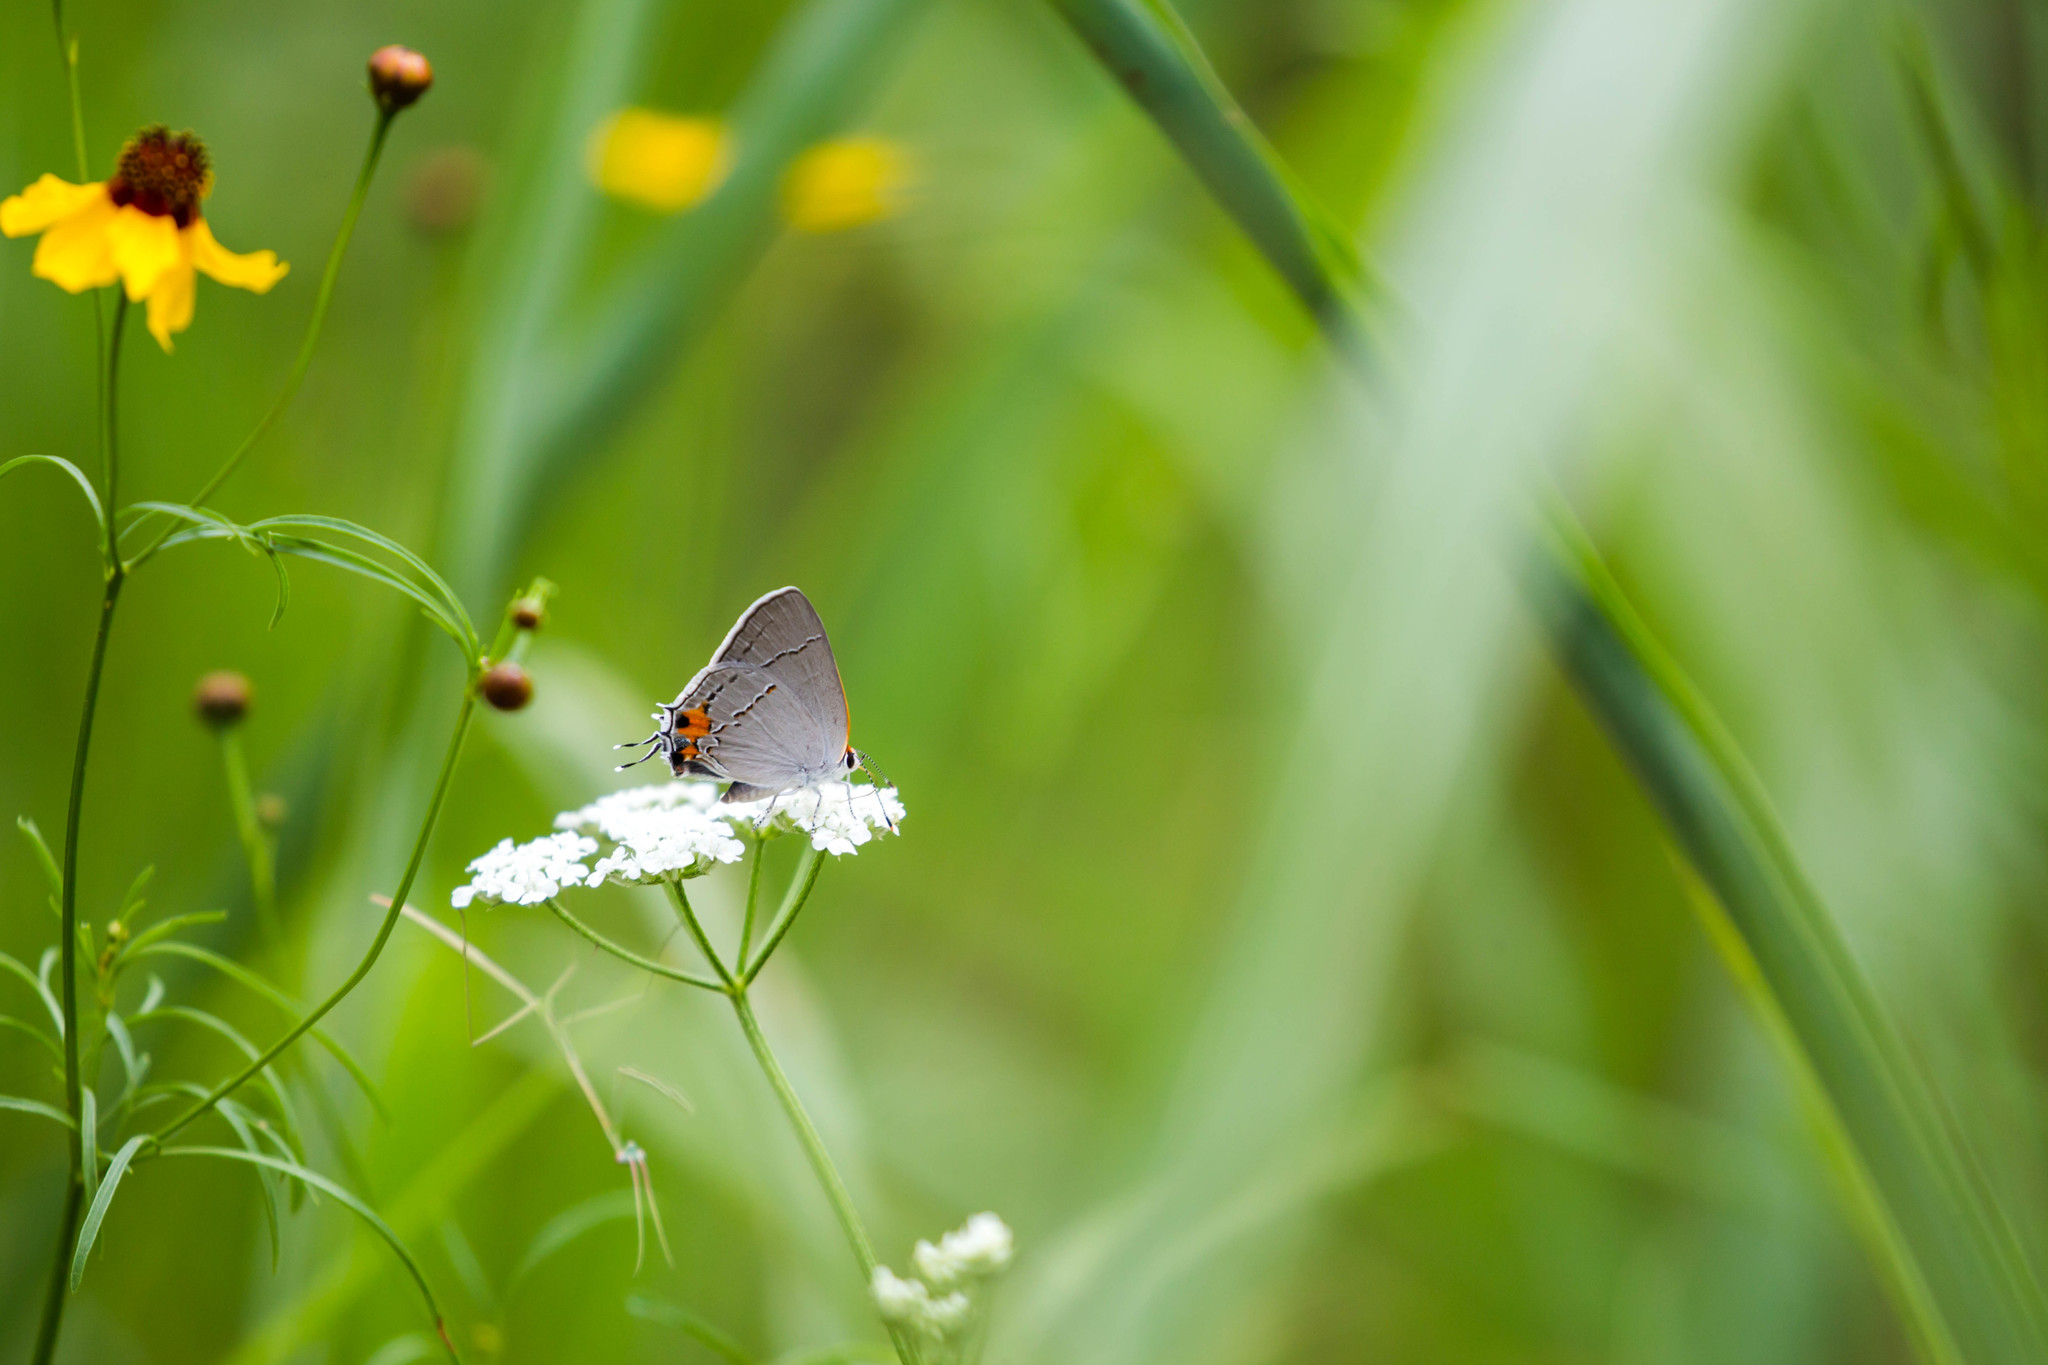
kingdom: Animalia
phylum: Arthropoda
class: Insecta
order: Lepidoptera
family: Lycaenidae
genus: Strymon
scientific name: Strymon melinus
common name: Gray hairstreak
